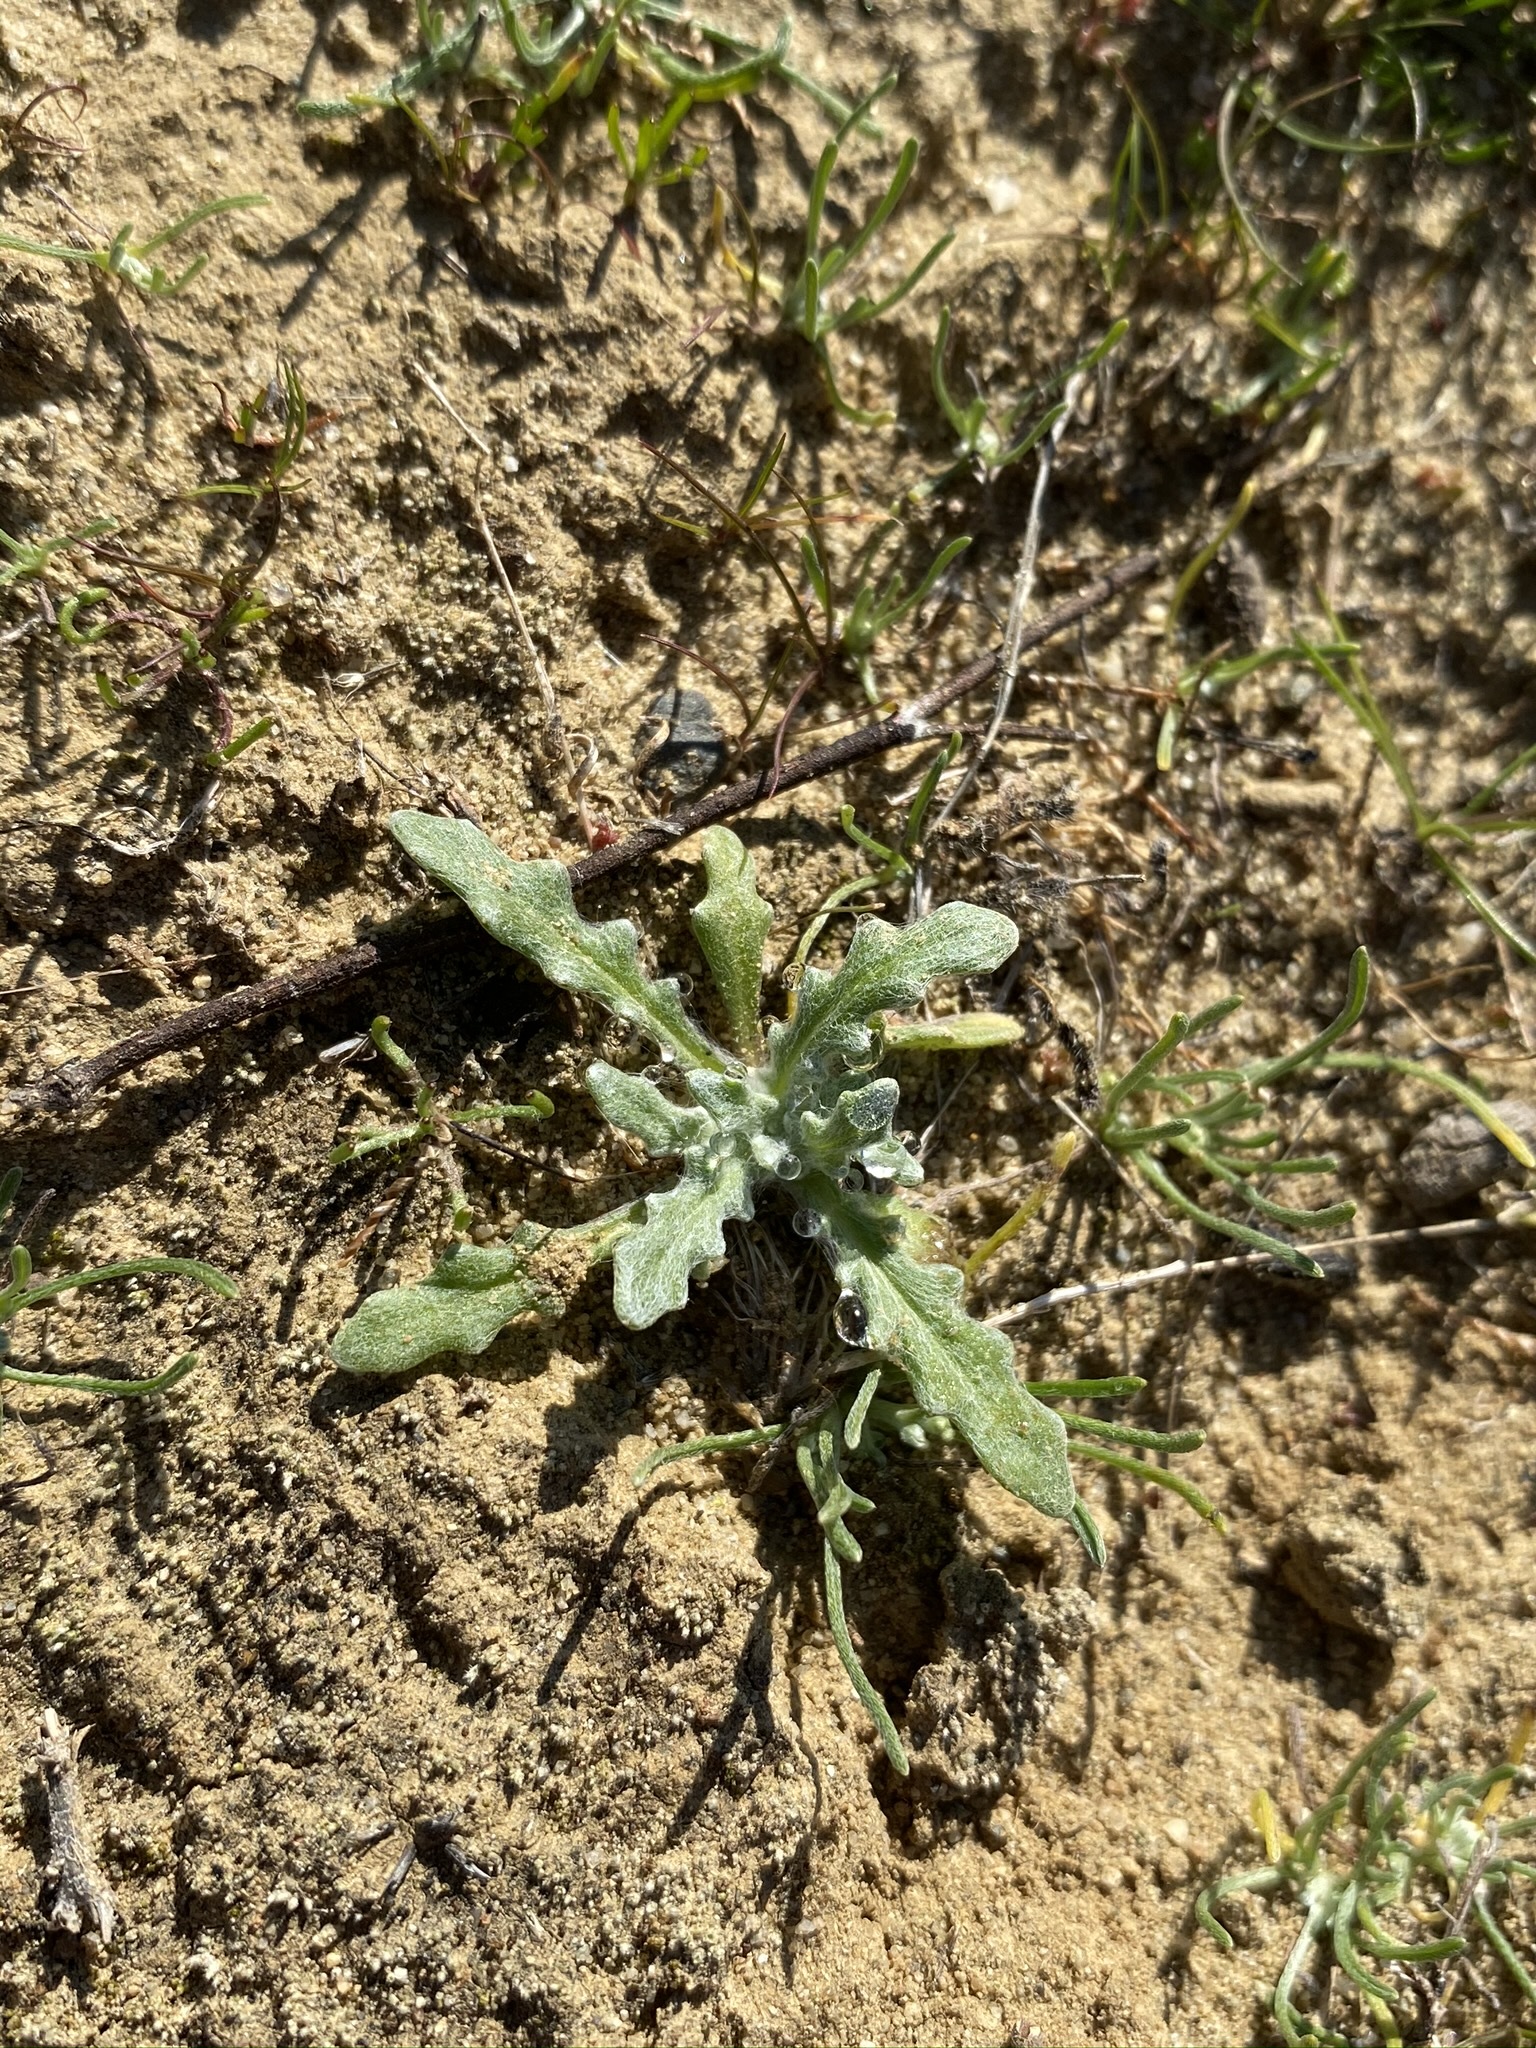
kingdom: Plantae
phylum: Tracheophyta
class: Magnoliopsida
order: Asterales
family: Asteraceae
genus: Monolopia
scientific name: Monolopia congdonii
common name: San joaquin woolly-threads
